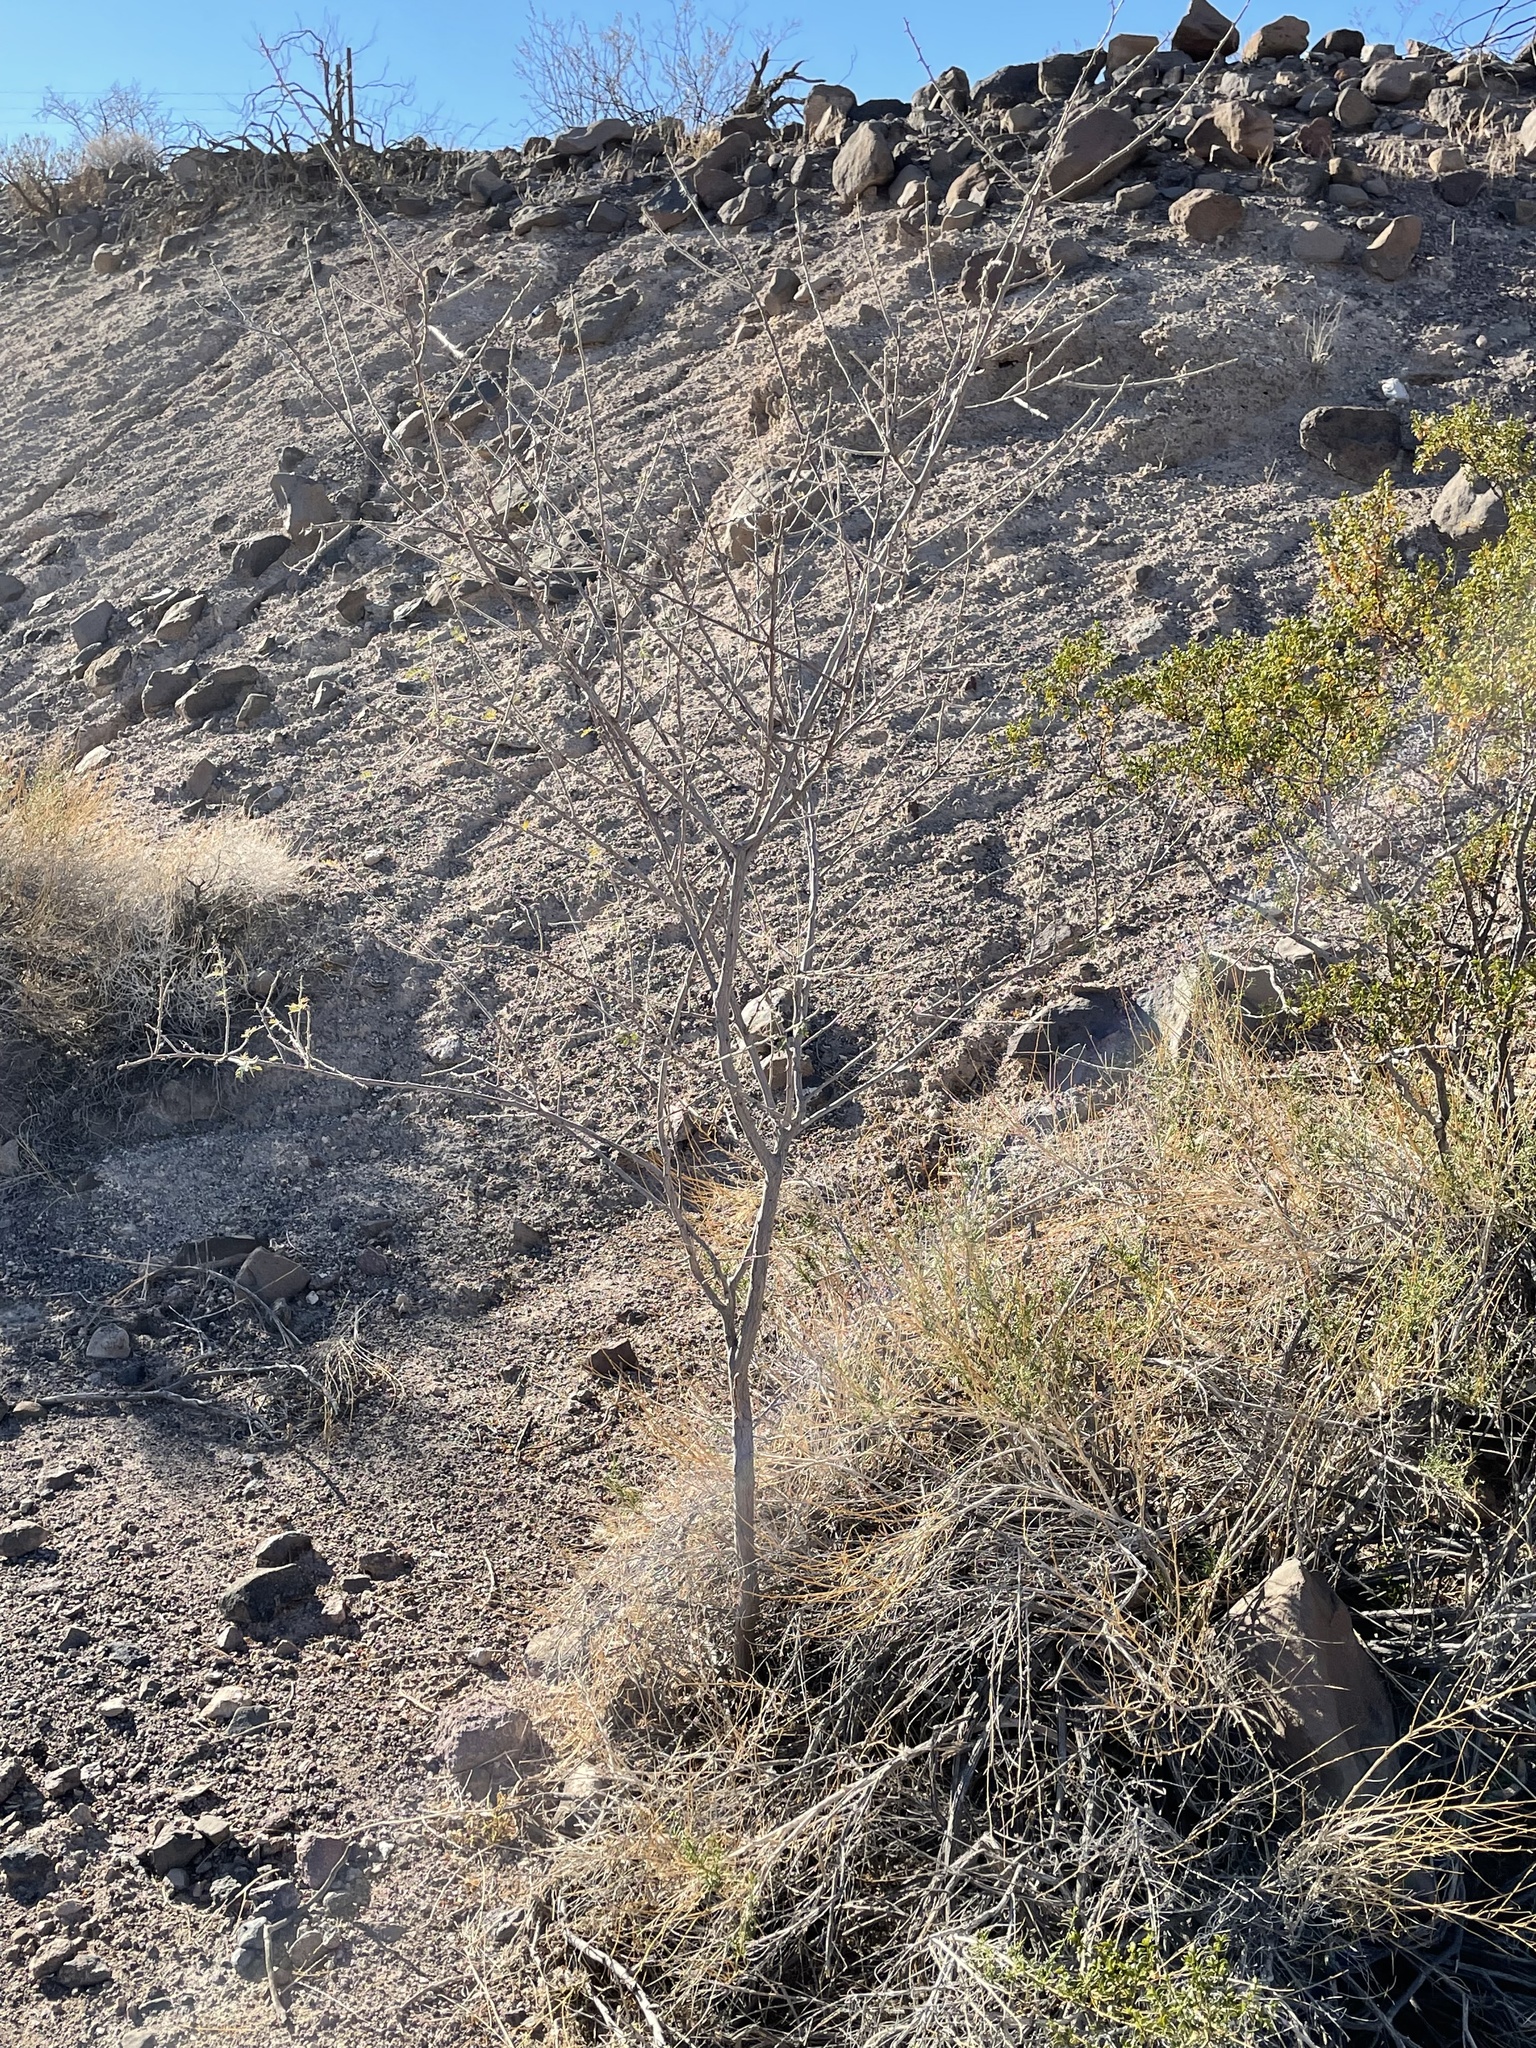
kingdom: Plantae
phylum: Tracheophyta
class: Magnoliopsida
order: Fabales
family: Fabaceae
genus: Senegalia
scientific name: Senegalia greggii
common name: Texas-mimosa
